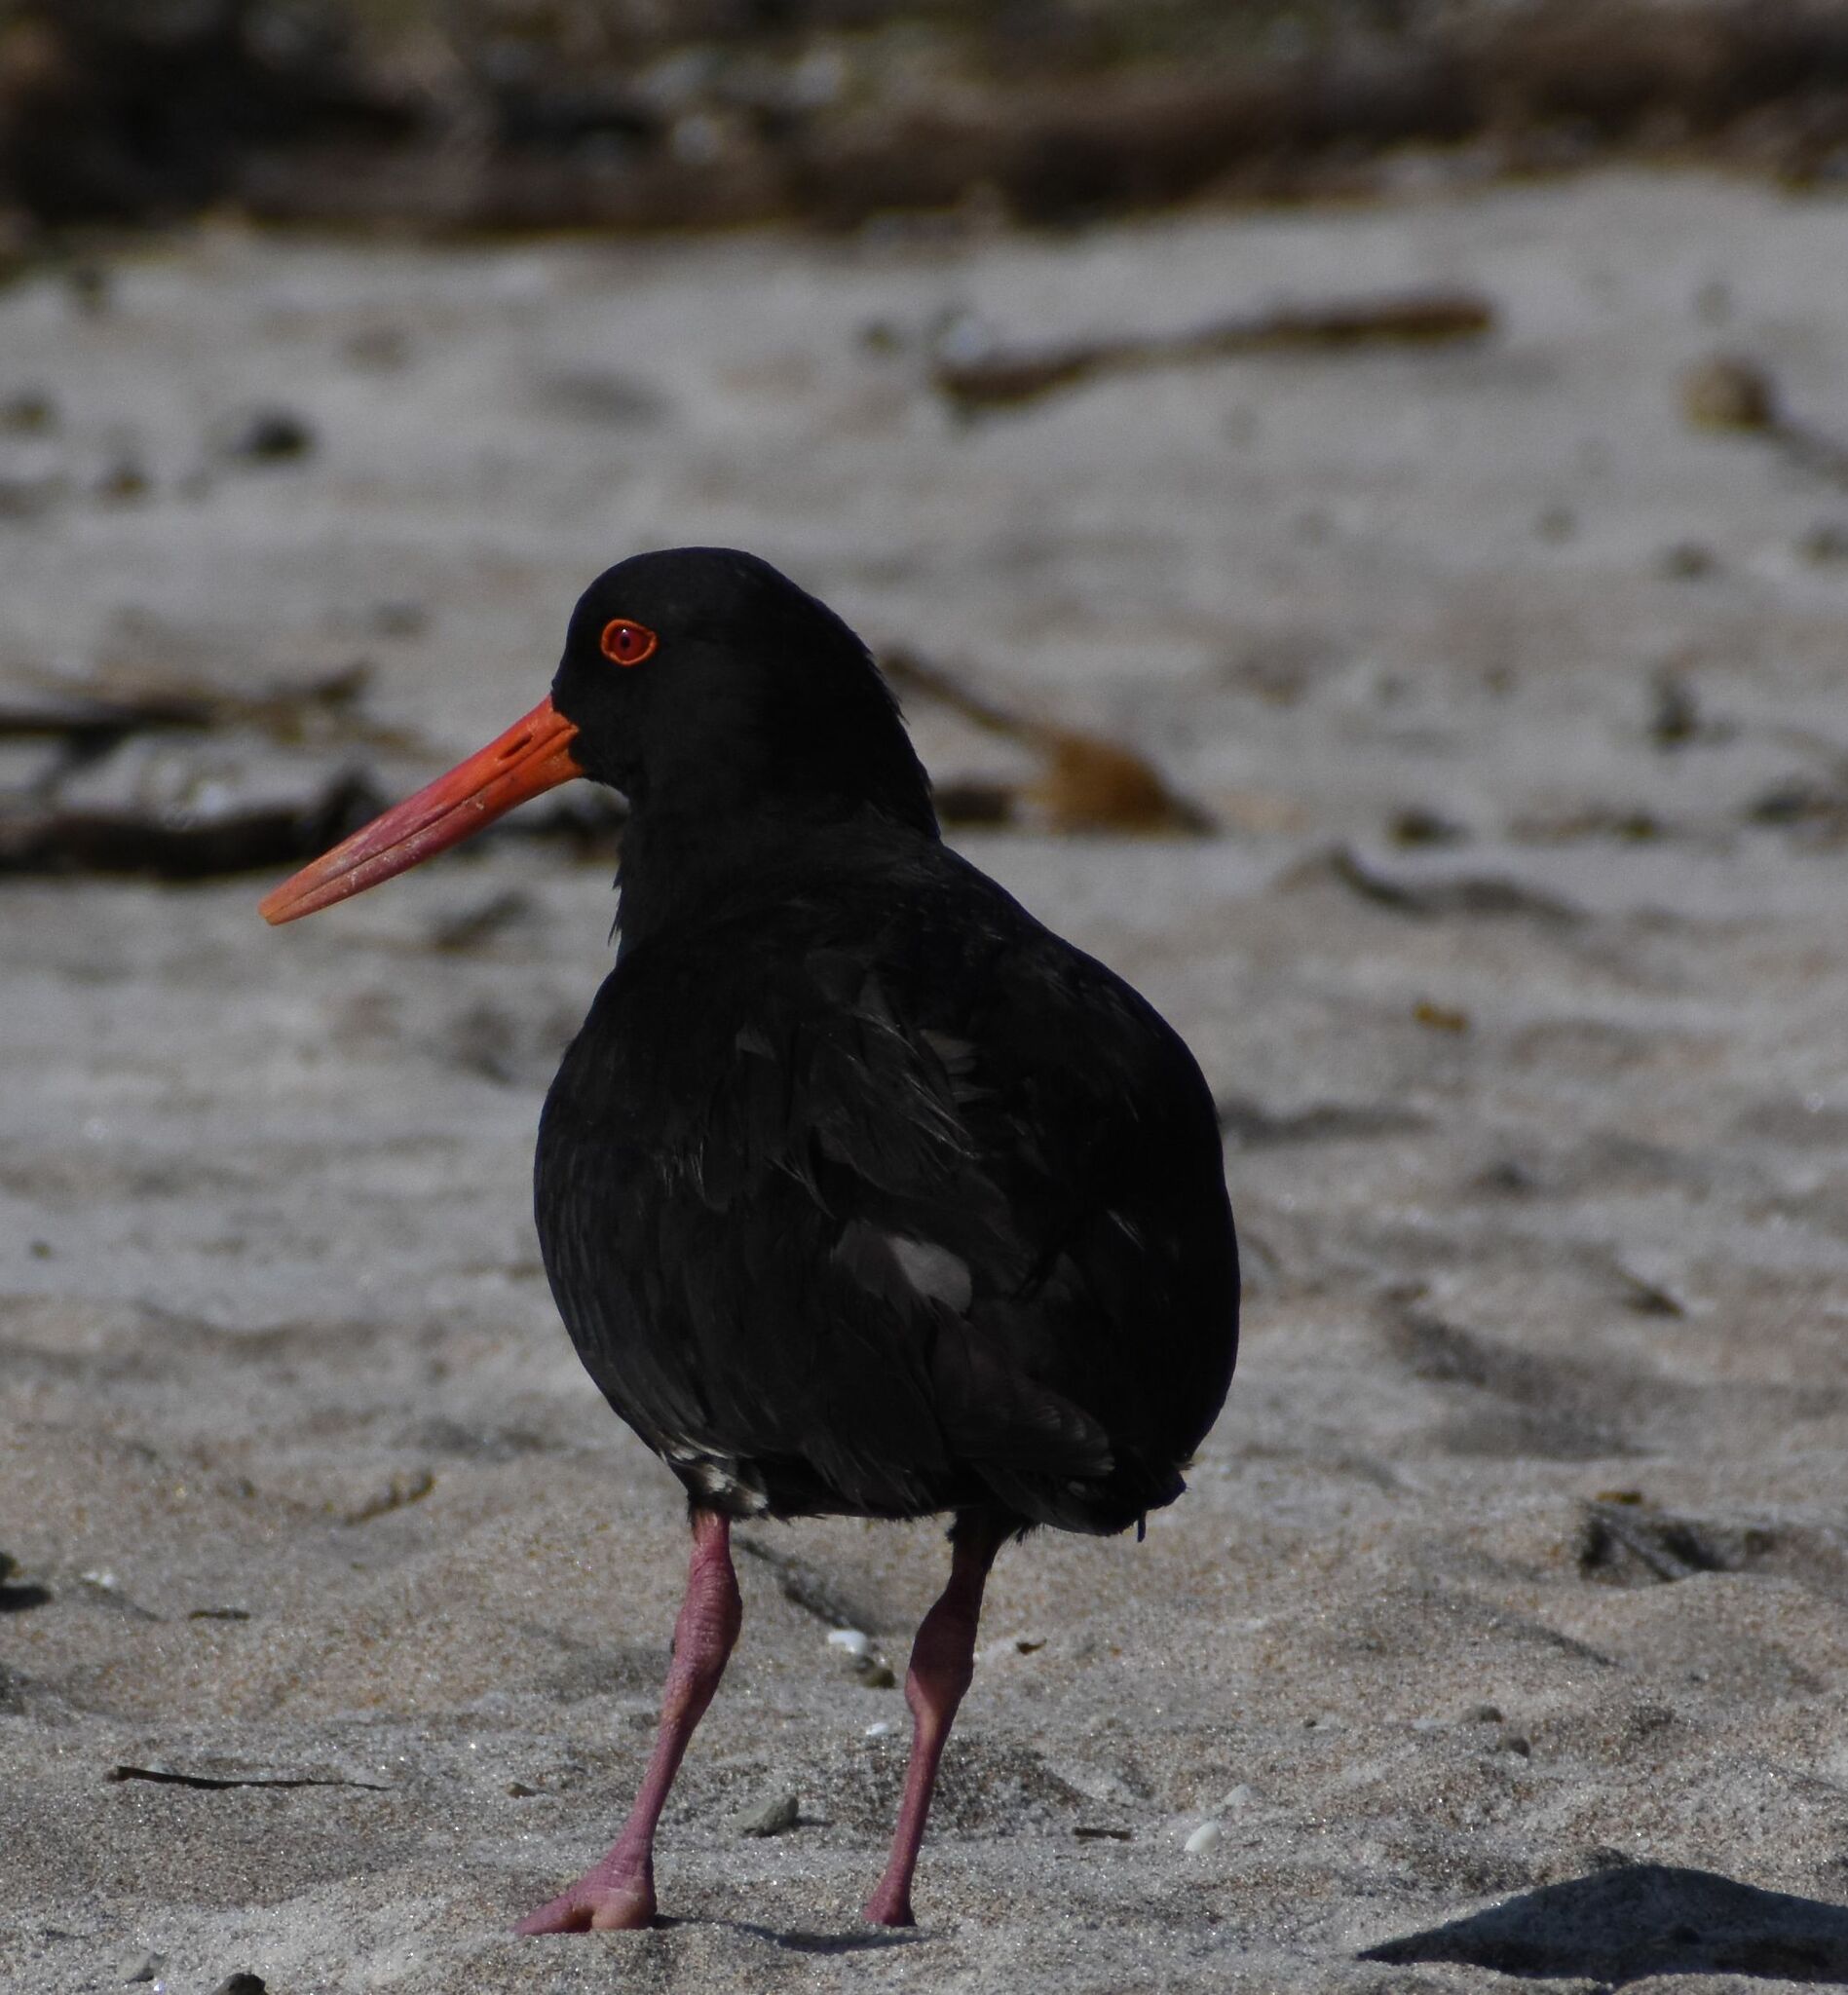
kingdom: Animalia
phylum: Chordata
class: Aves
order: Charadriiformes
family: Haematopodidae
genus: Haematopus
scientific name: Haematopus unicolor
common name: Variable oystercatcher
